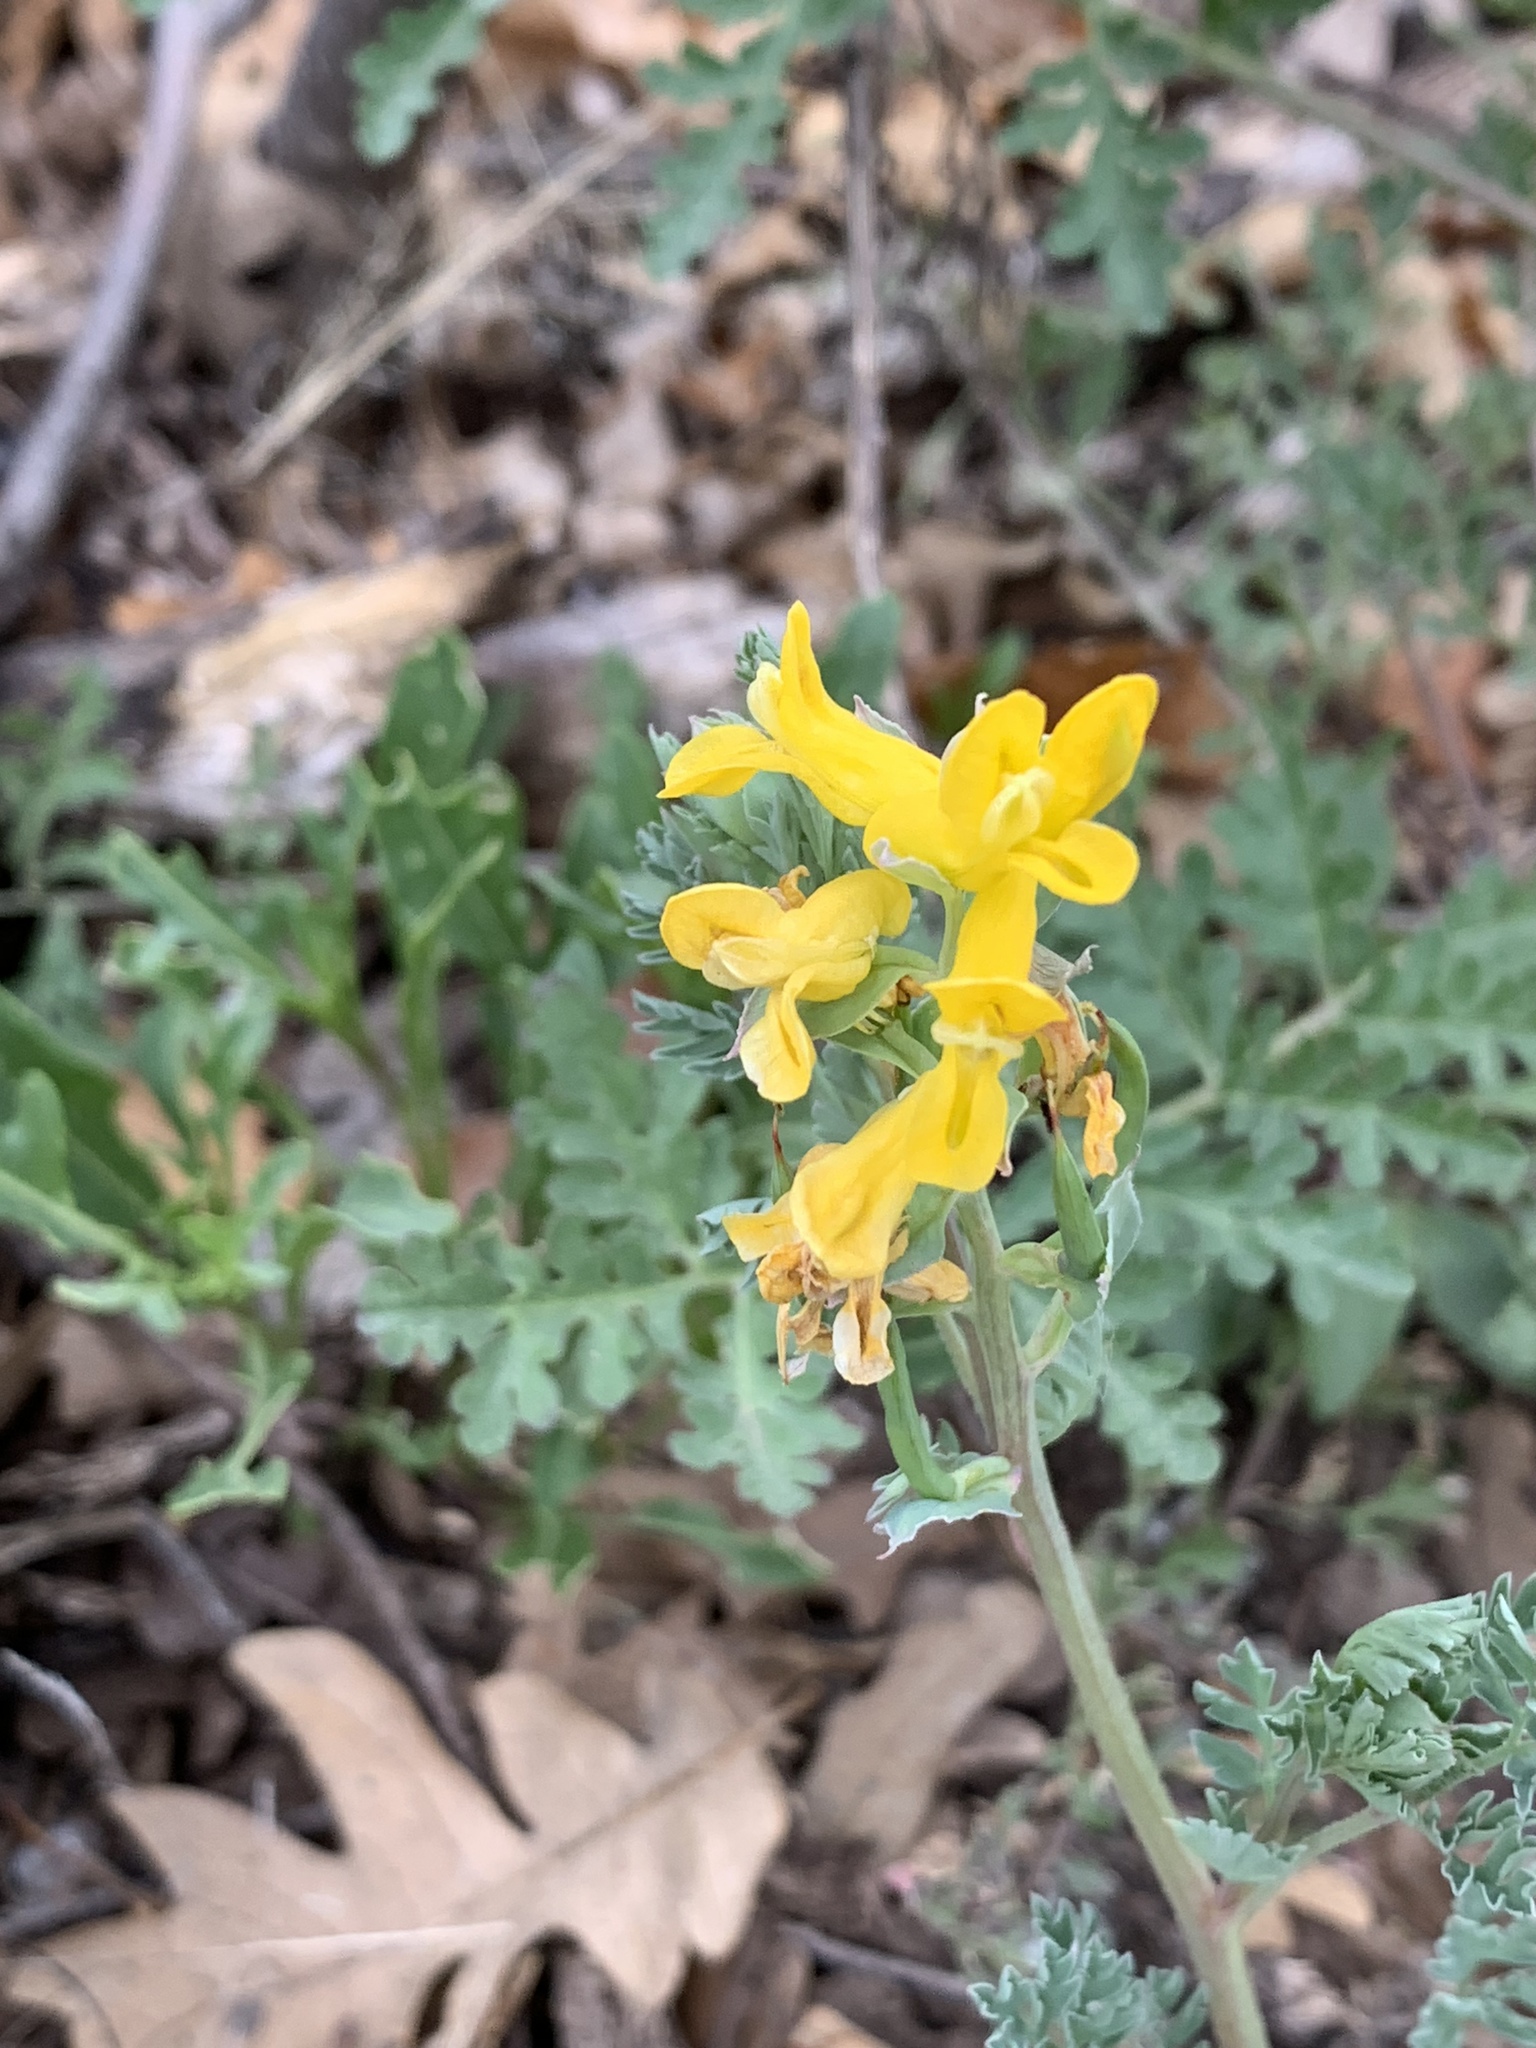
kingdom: Plantae
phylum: Tracheophyta
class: Magnoliopsida
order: Ranunculales
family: Papaveraceae
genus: Corydalis
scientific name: Corydalis aurea
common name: Golden corydalis
